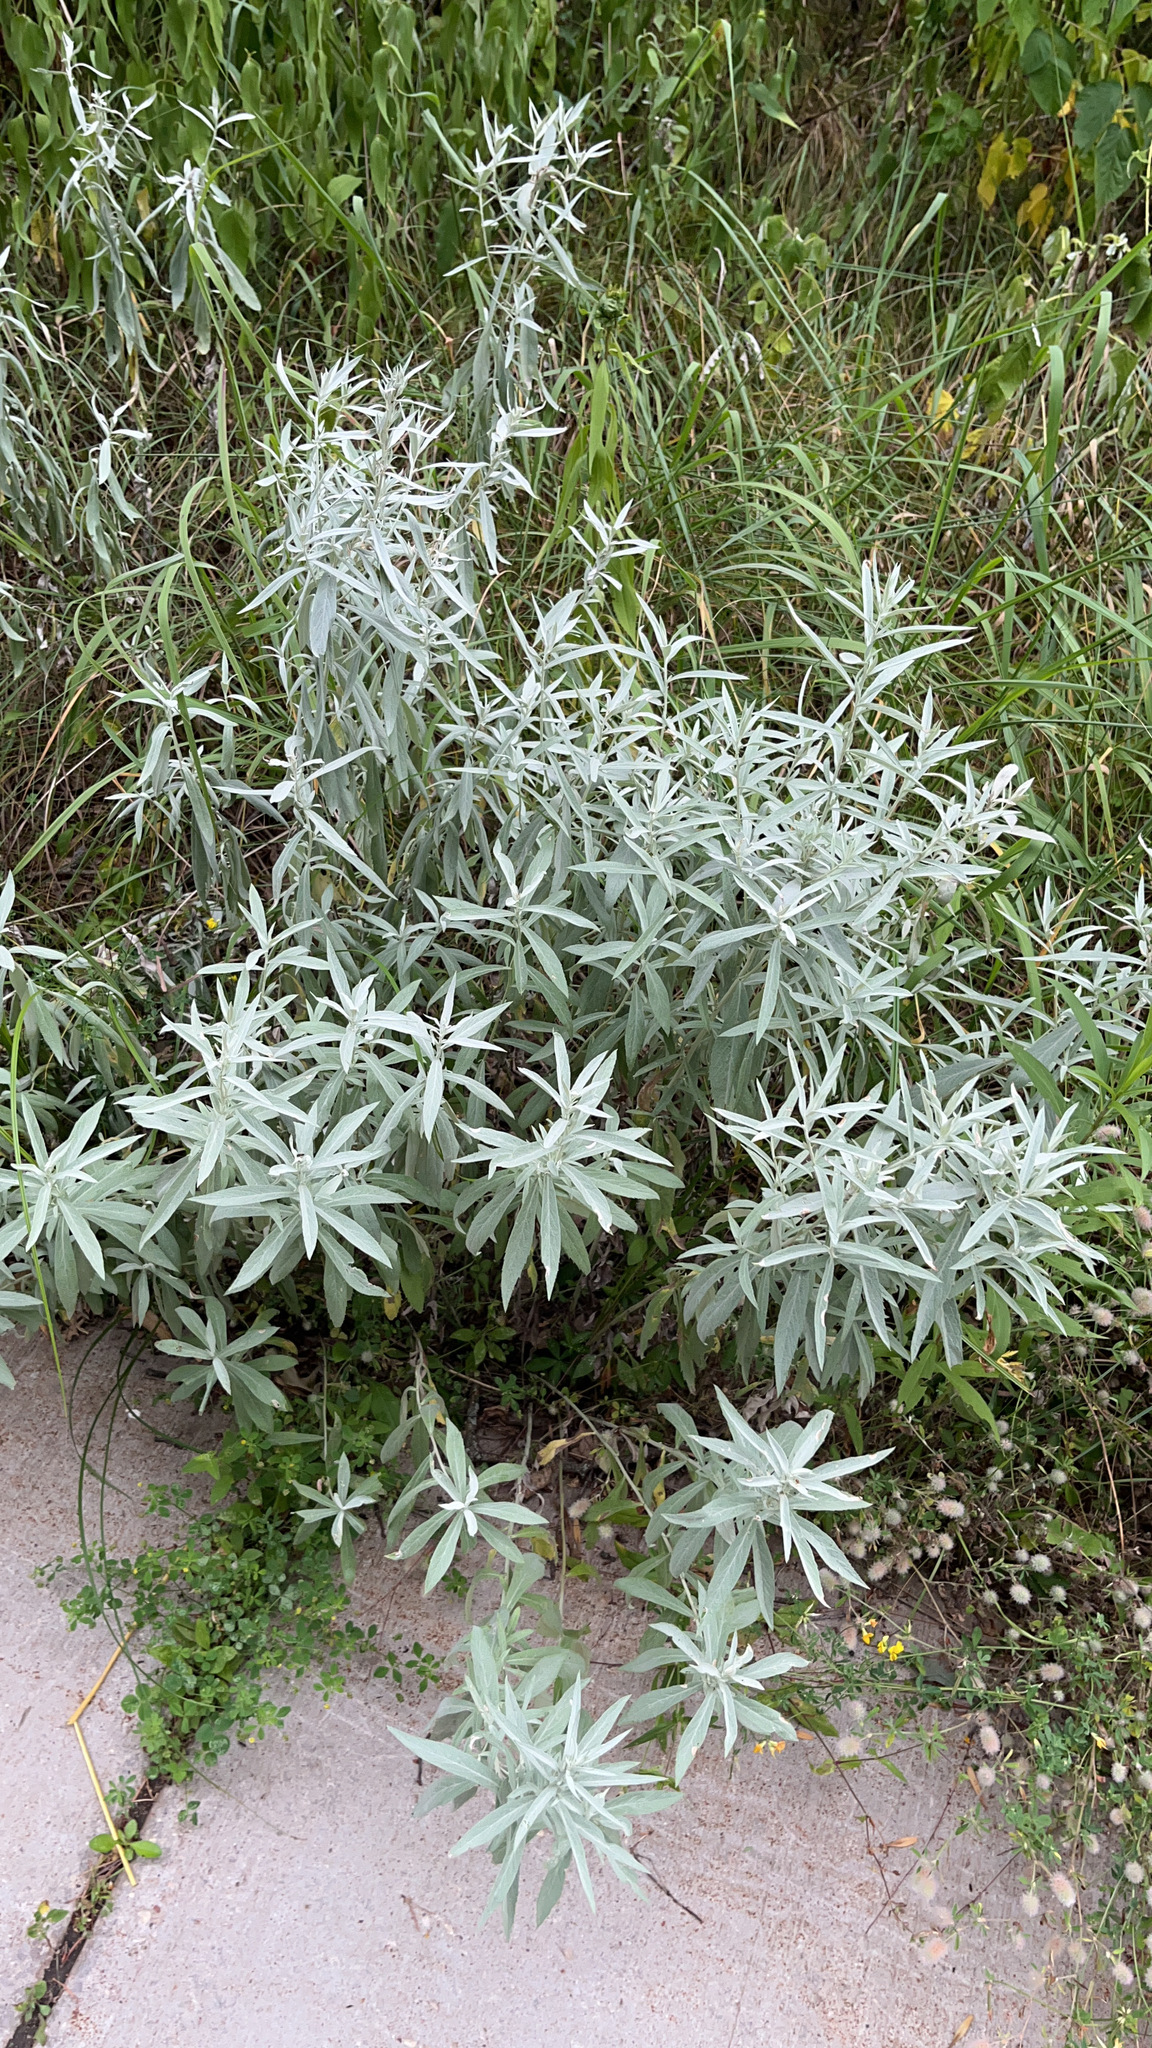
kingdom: Plantae
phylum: Tracheophyta
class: Magnoliopsida
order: Asterales
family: Asteraceae
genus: Artemisia
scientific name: Artemisia ludoviciana
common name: Western mugwort
